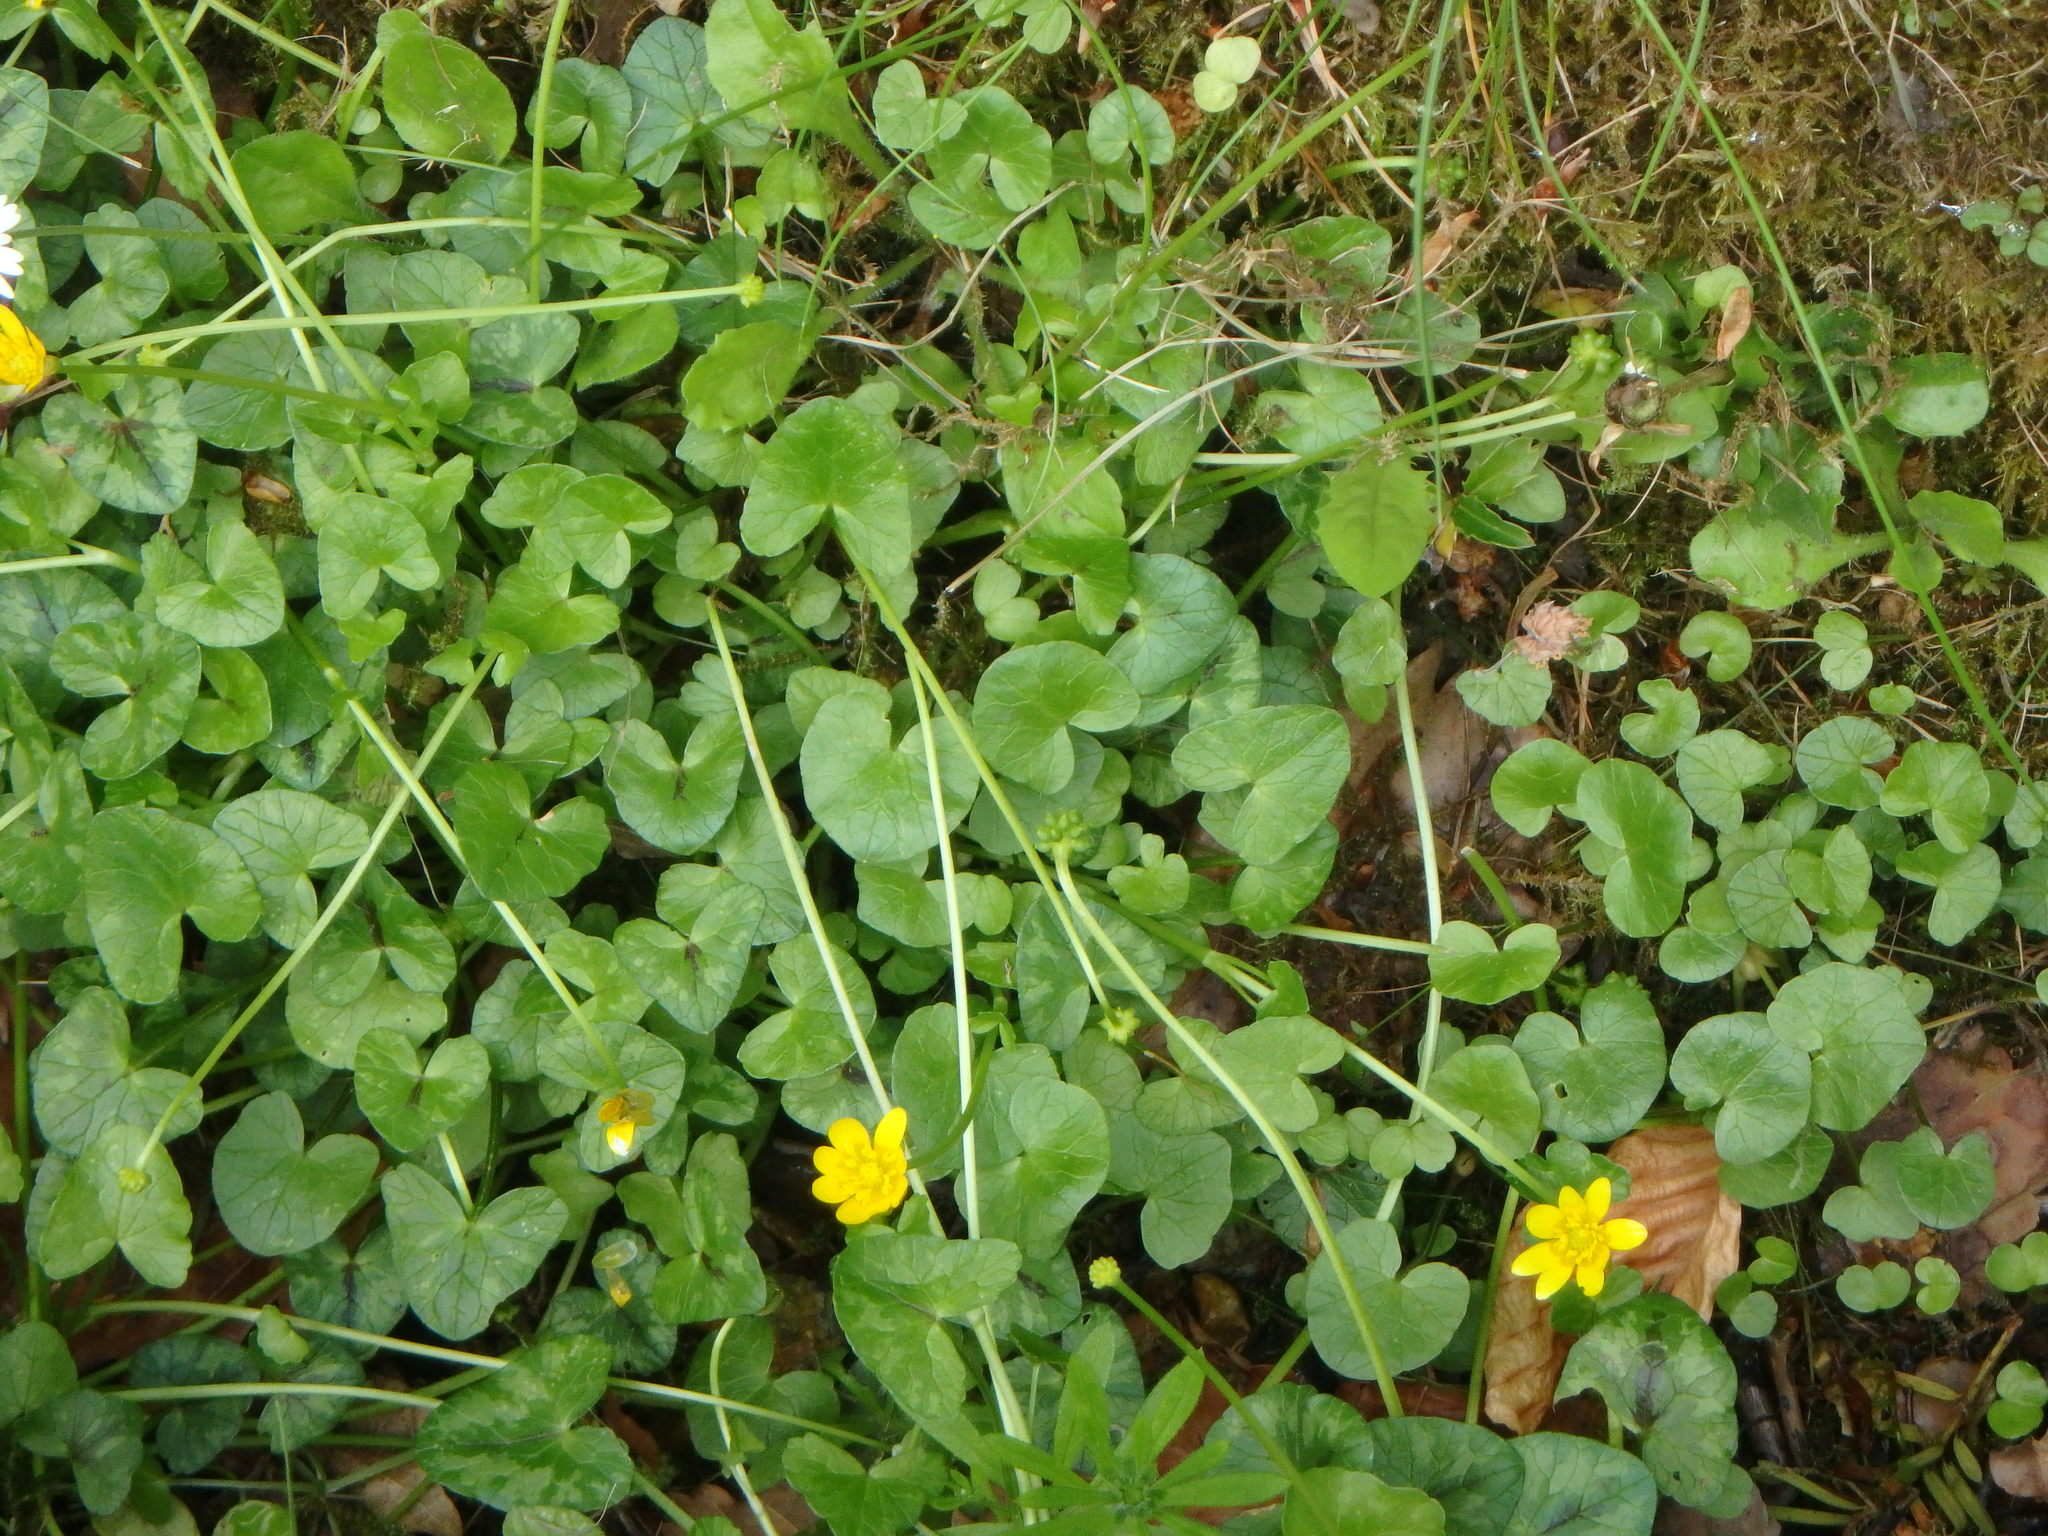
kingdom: Plantae
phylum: Tracheophyta
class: Magnoliopsida
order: Ranunculales
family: Ranunculaceae
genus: Ficaria
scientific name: Ficaria verna
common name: Lesser celandine
